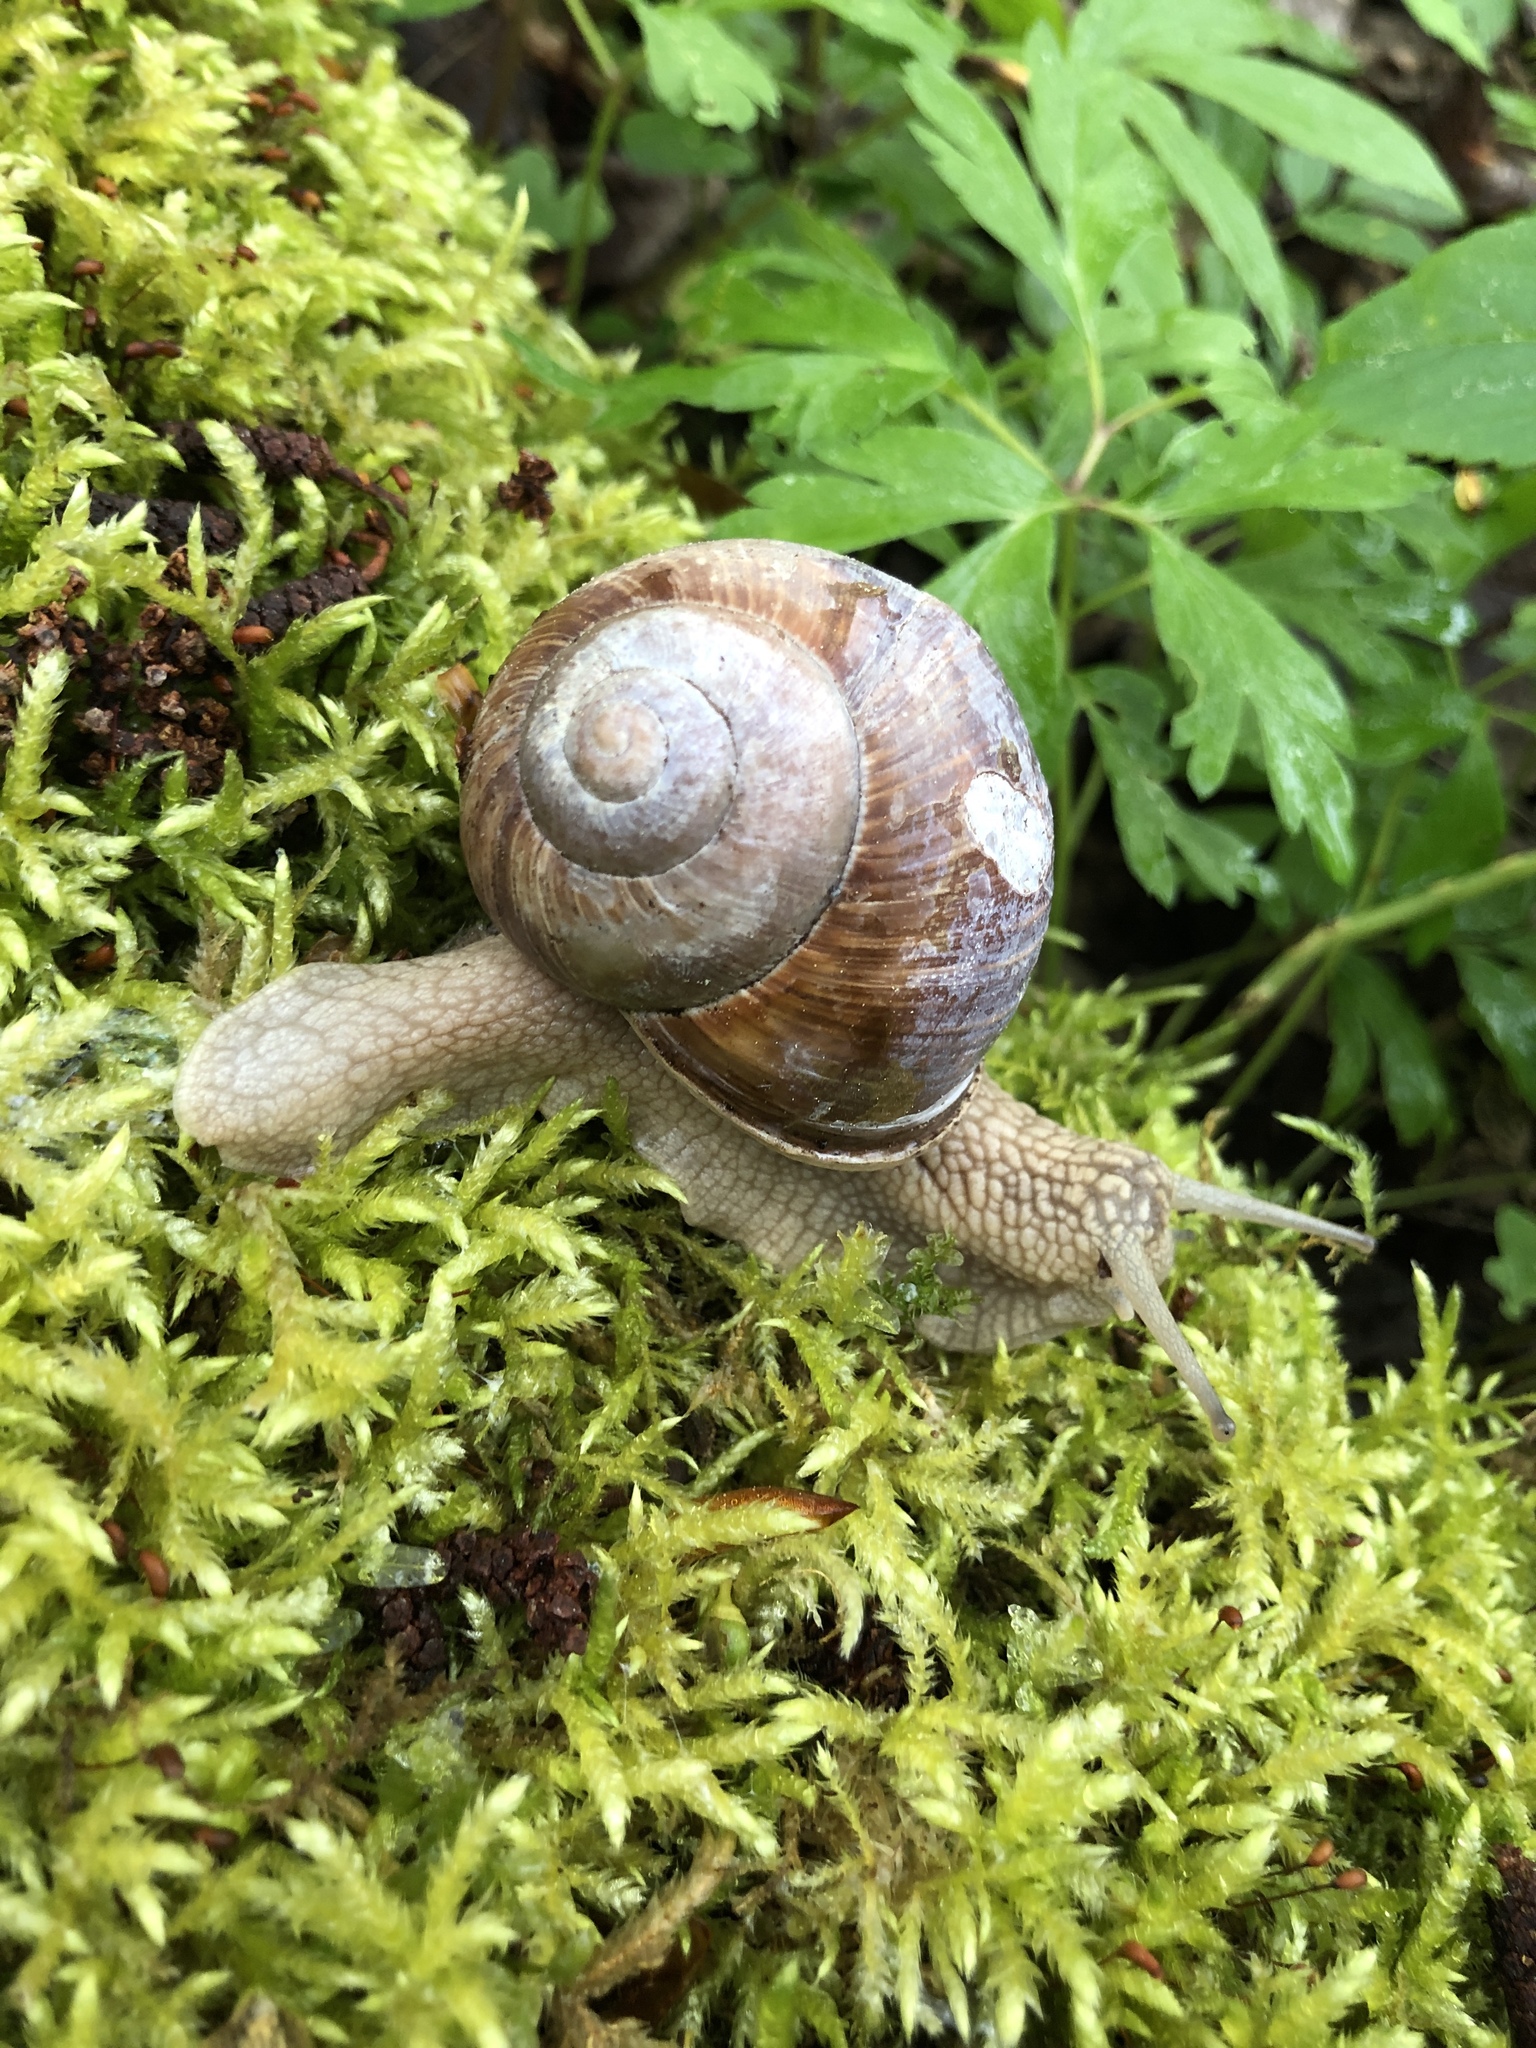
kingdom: Animalia
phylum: Mollusca
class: Gastropoda
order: Stylommatophora
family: Helicidae
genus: Helix
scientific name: Helix pomatia
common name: Roman snail
